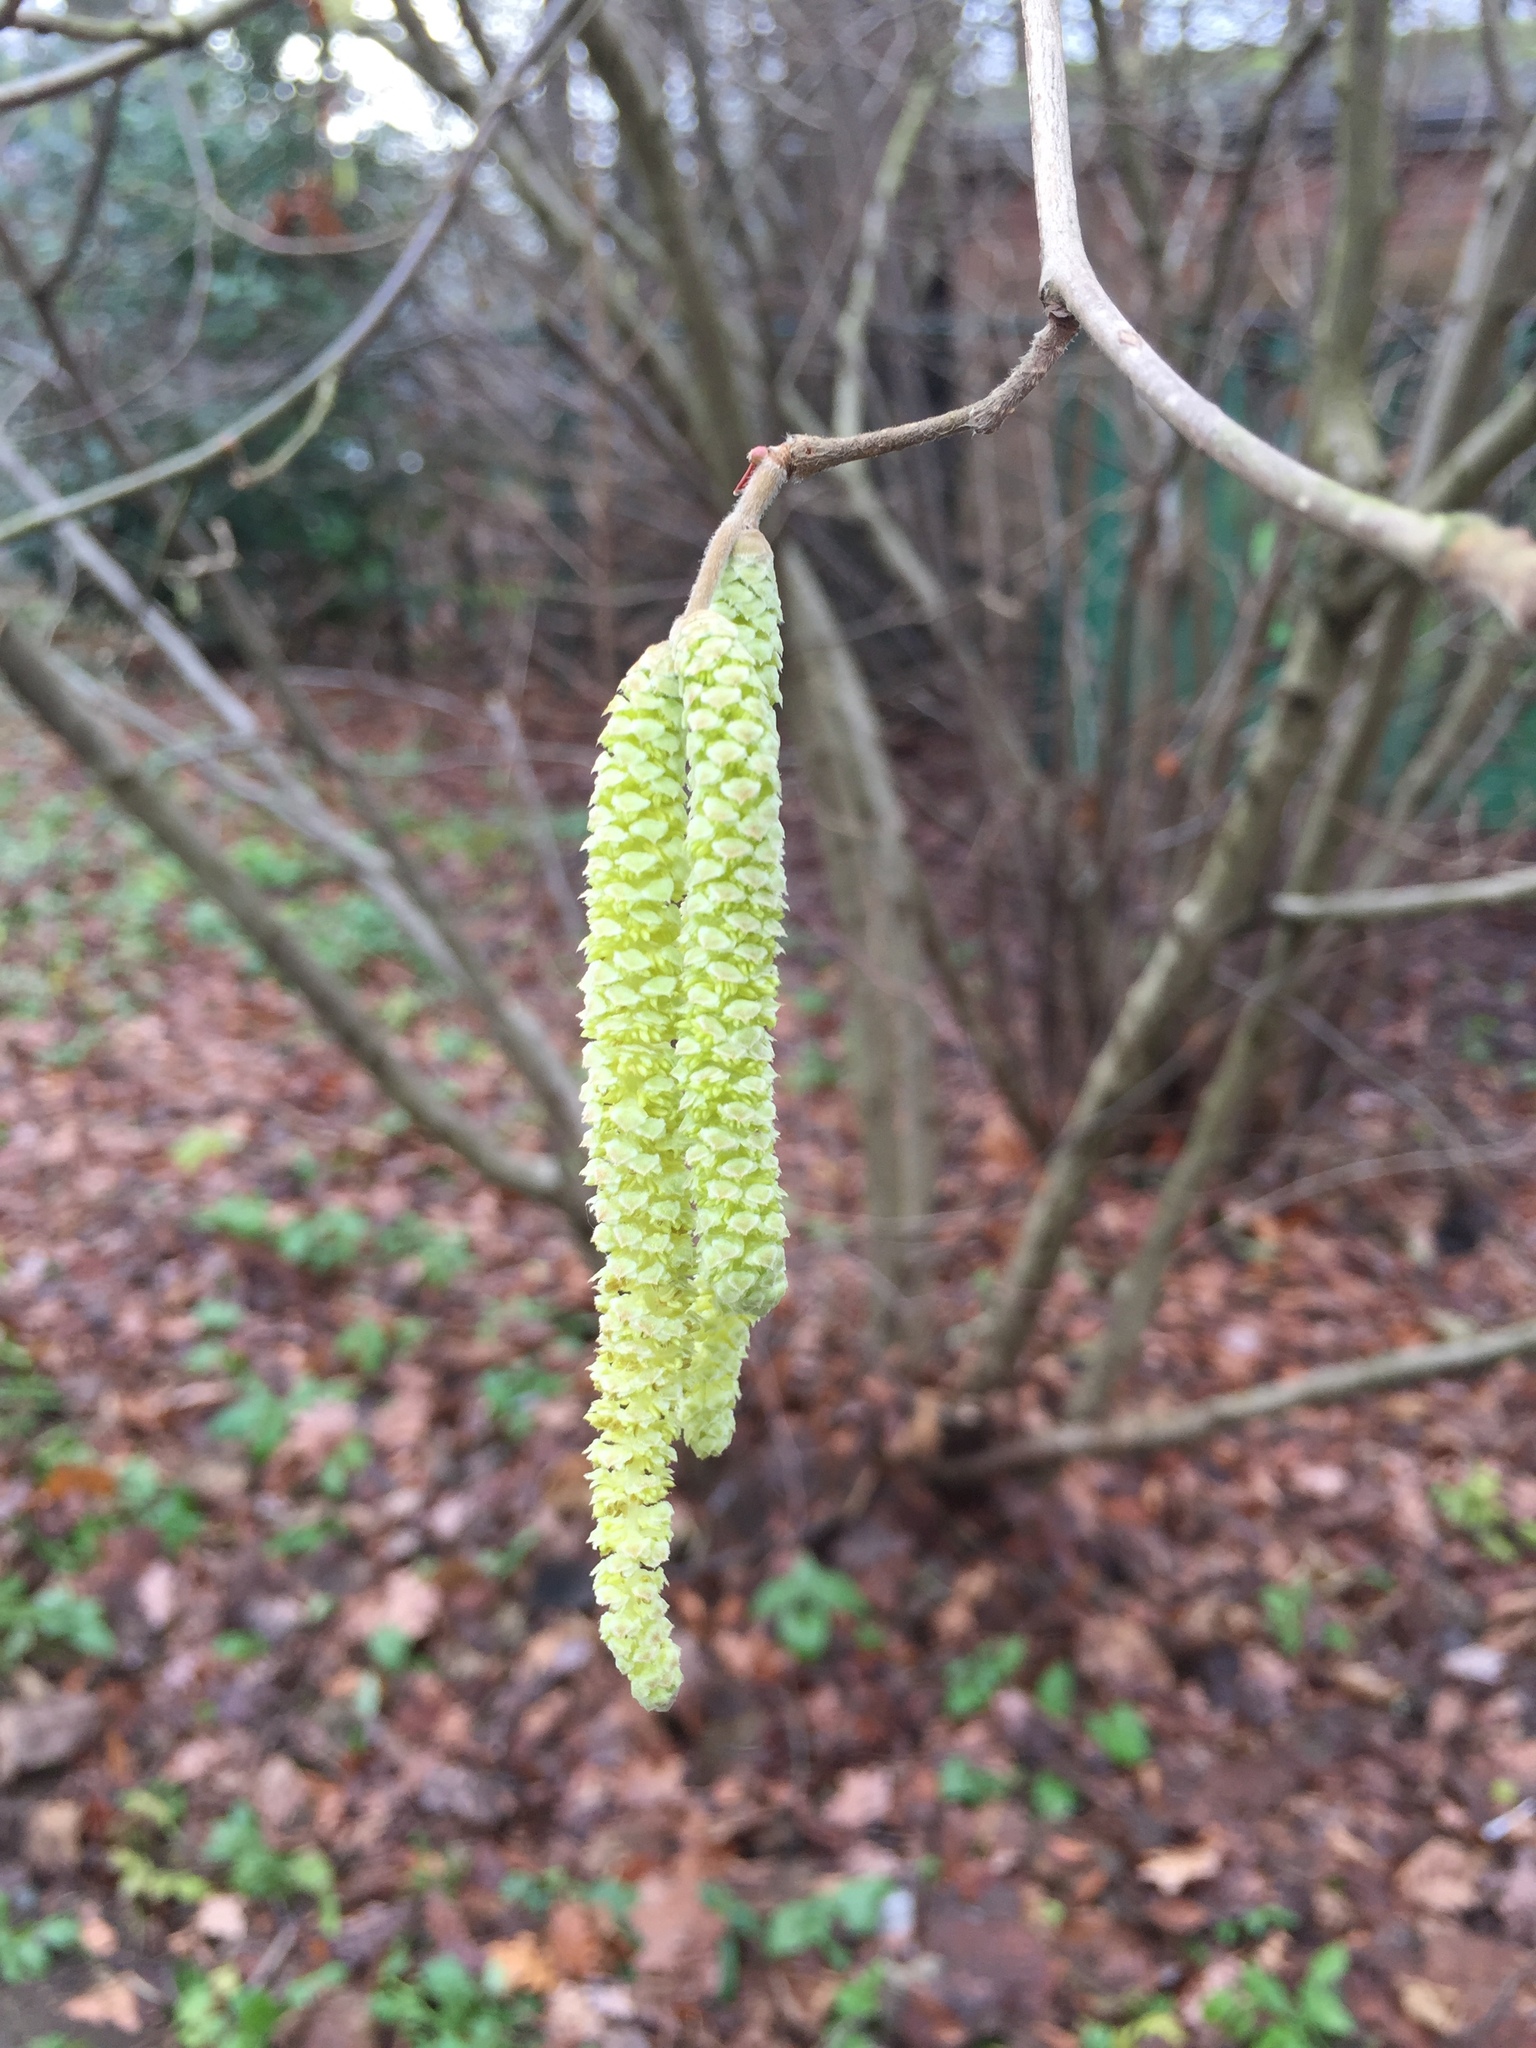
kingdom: Plantae
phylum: Tracheophyta
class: Magnoliopsida
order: Fagales
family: Betulaceae
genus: Corylus
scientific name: Corylus avellana
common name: European hazel
